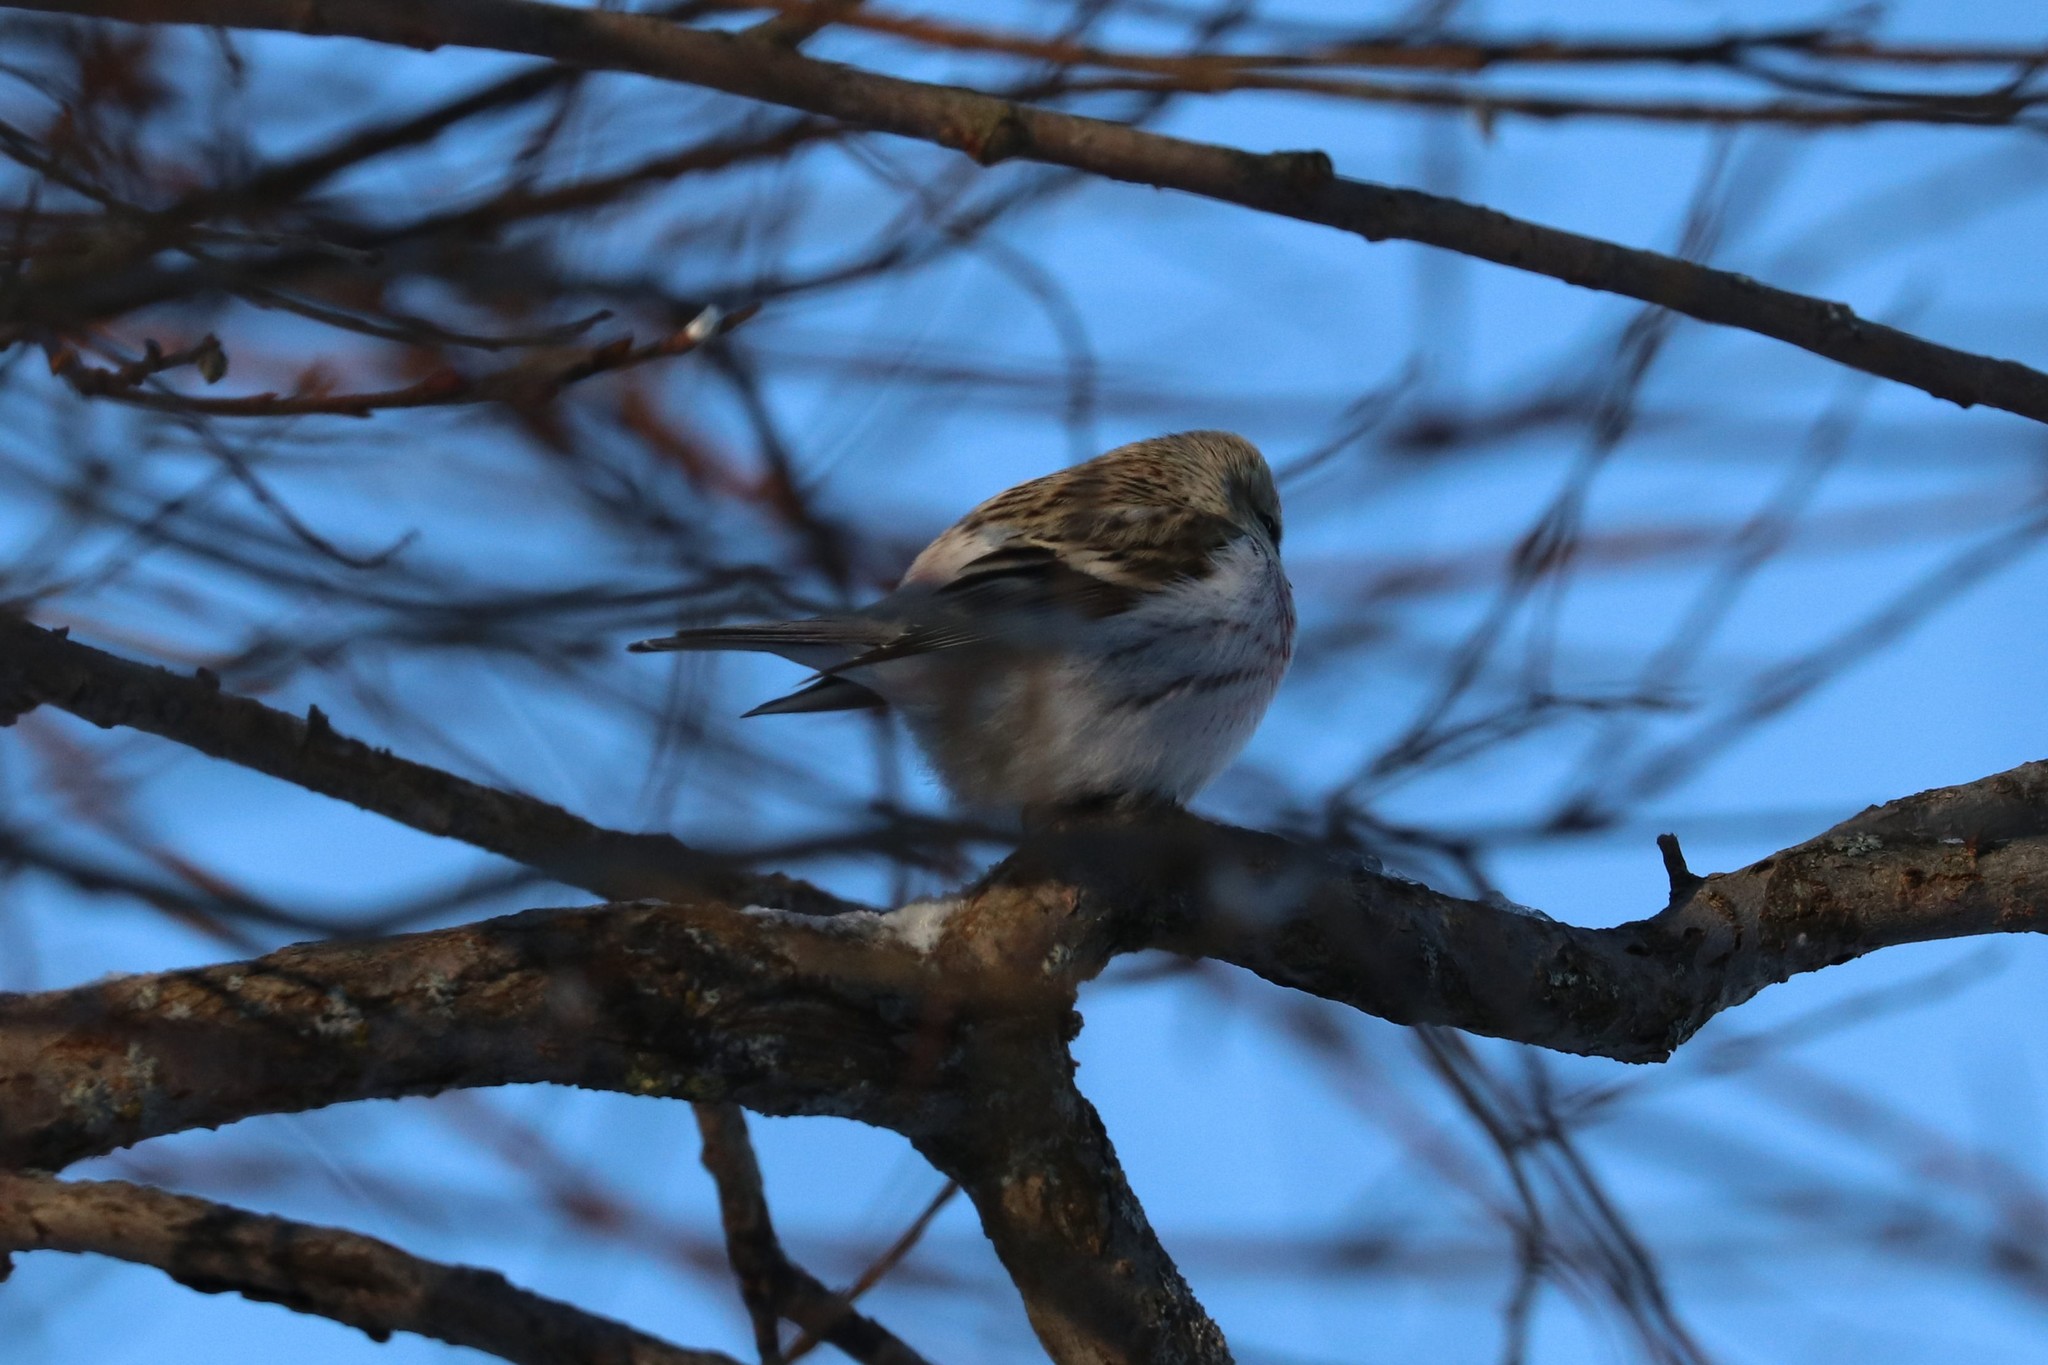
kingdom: Animalia
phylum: Chordata
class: Aves
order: Passeriformes
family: Fringillidae
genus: Acanthis
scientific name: Acanthis hornemanni
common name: Arctic redpoll
